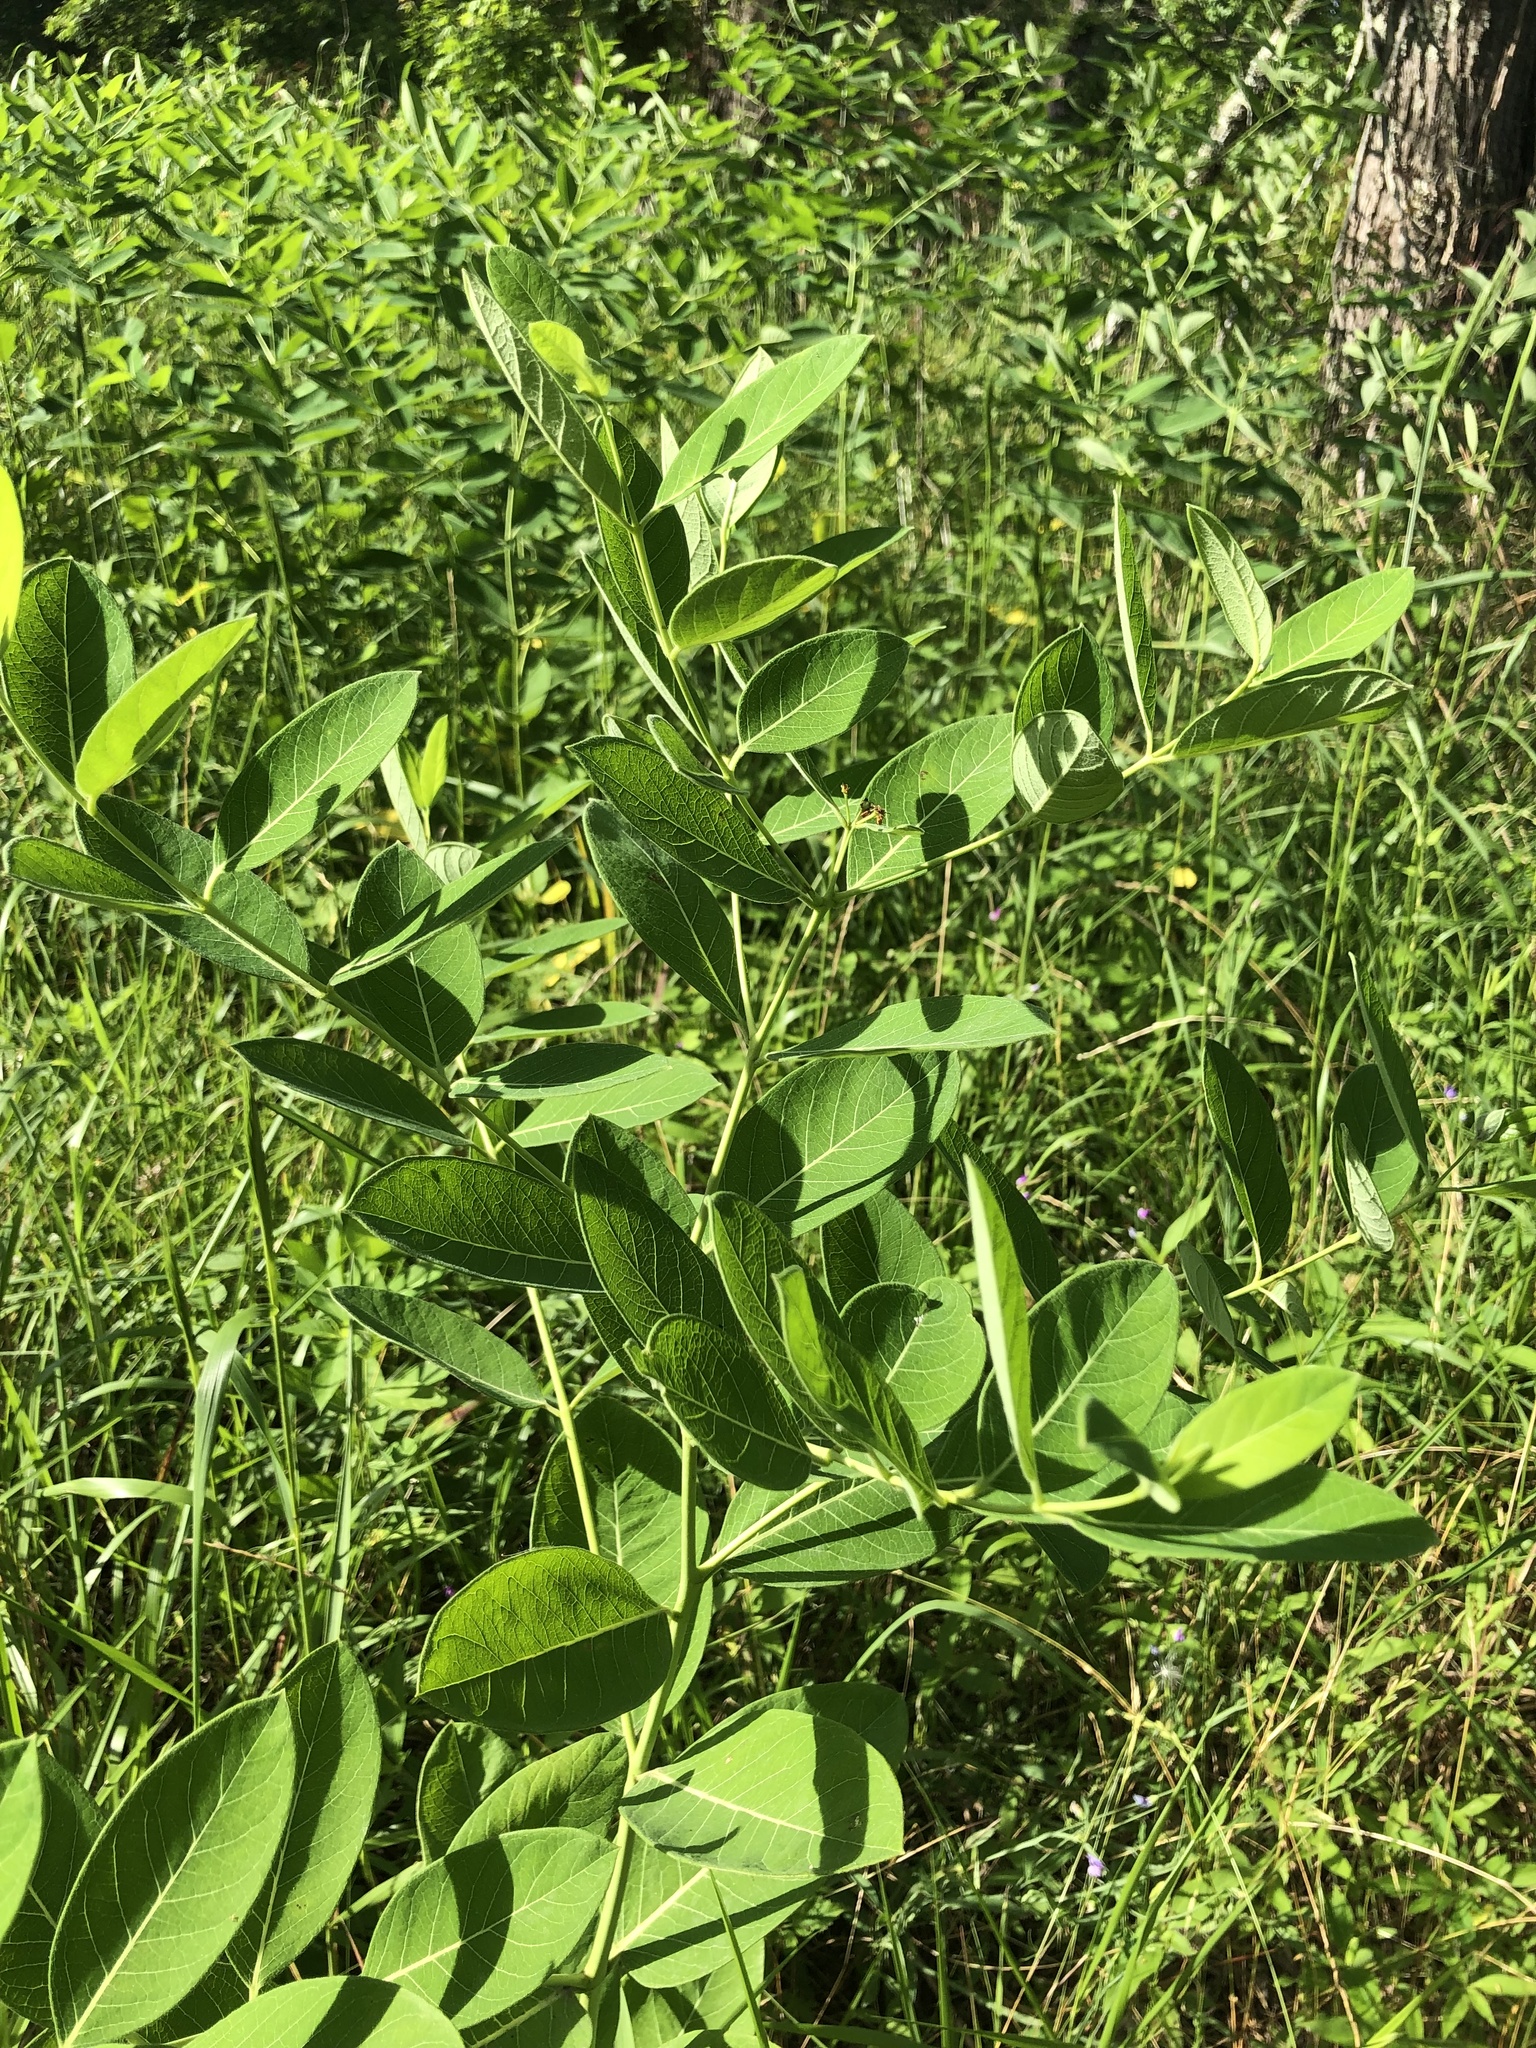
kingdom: Plantae
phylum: Tracheophyta
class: Magnoliopsida
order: Gentianales
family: Apocynaceae
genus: Apocynum
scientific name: Apocynum cannabinum
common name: Hemp dogbane
